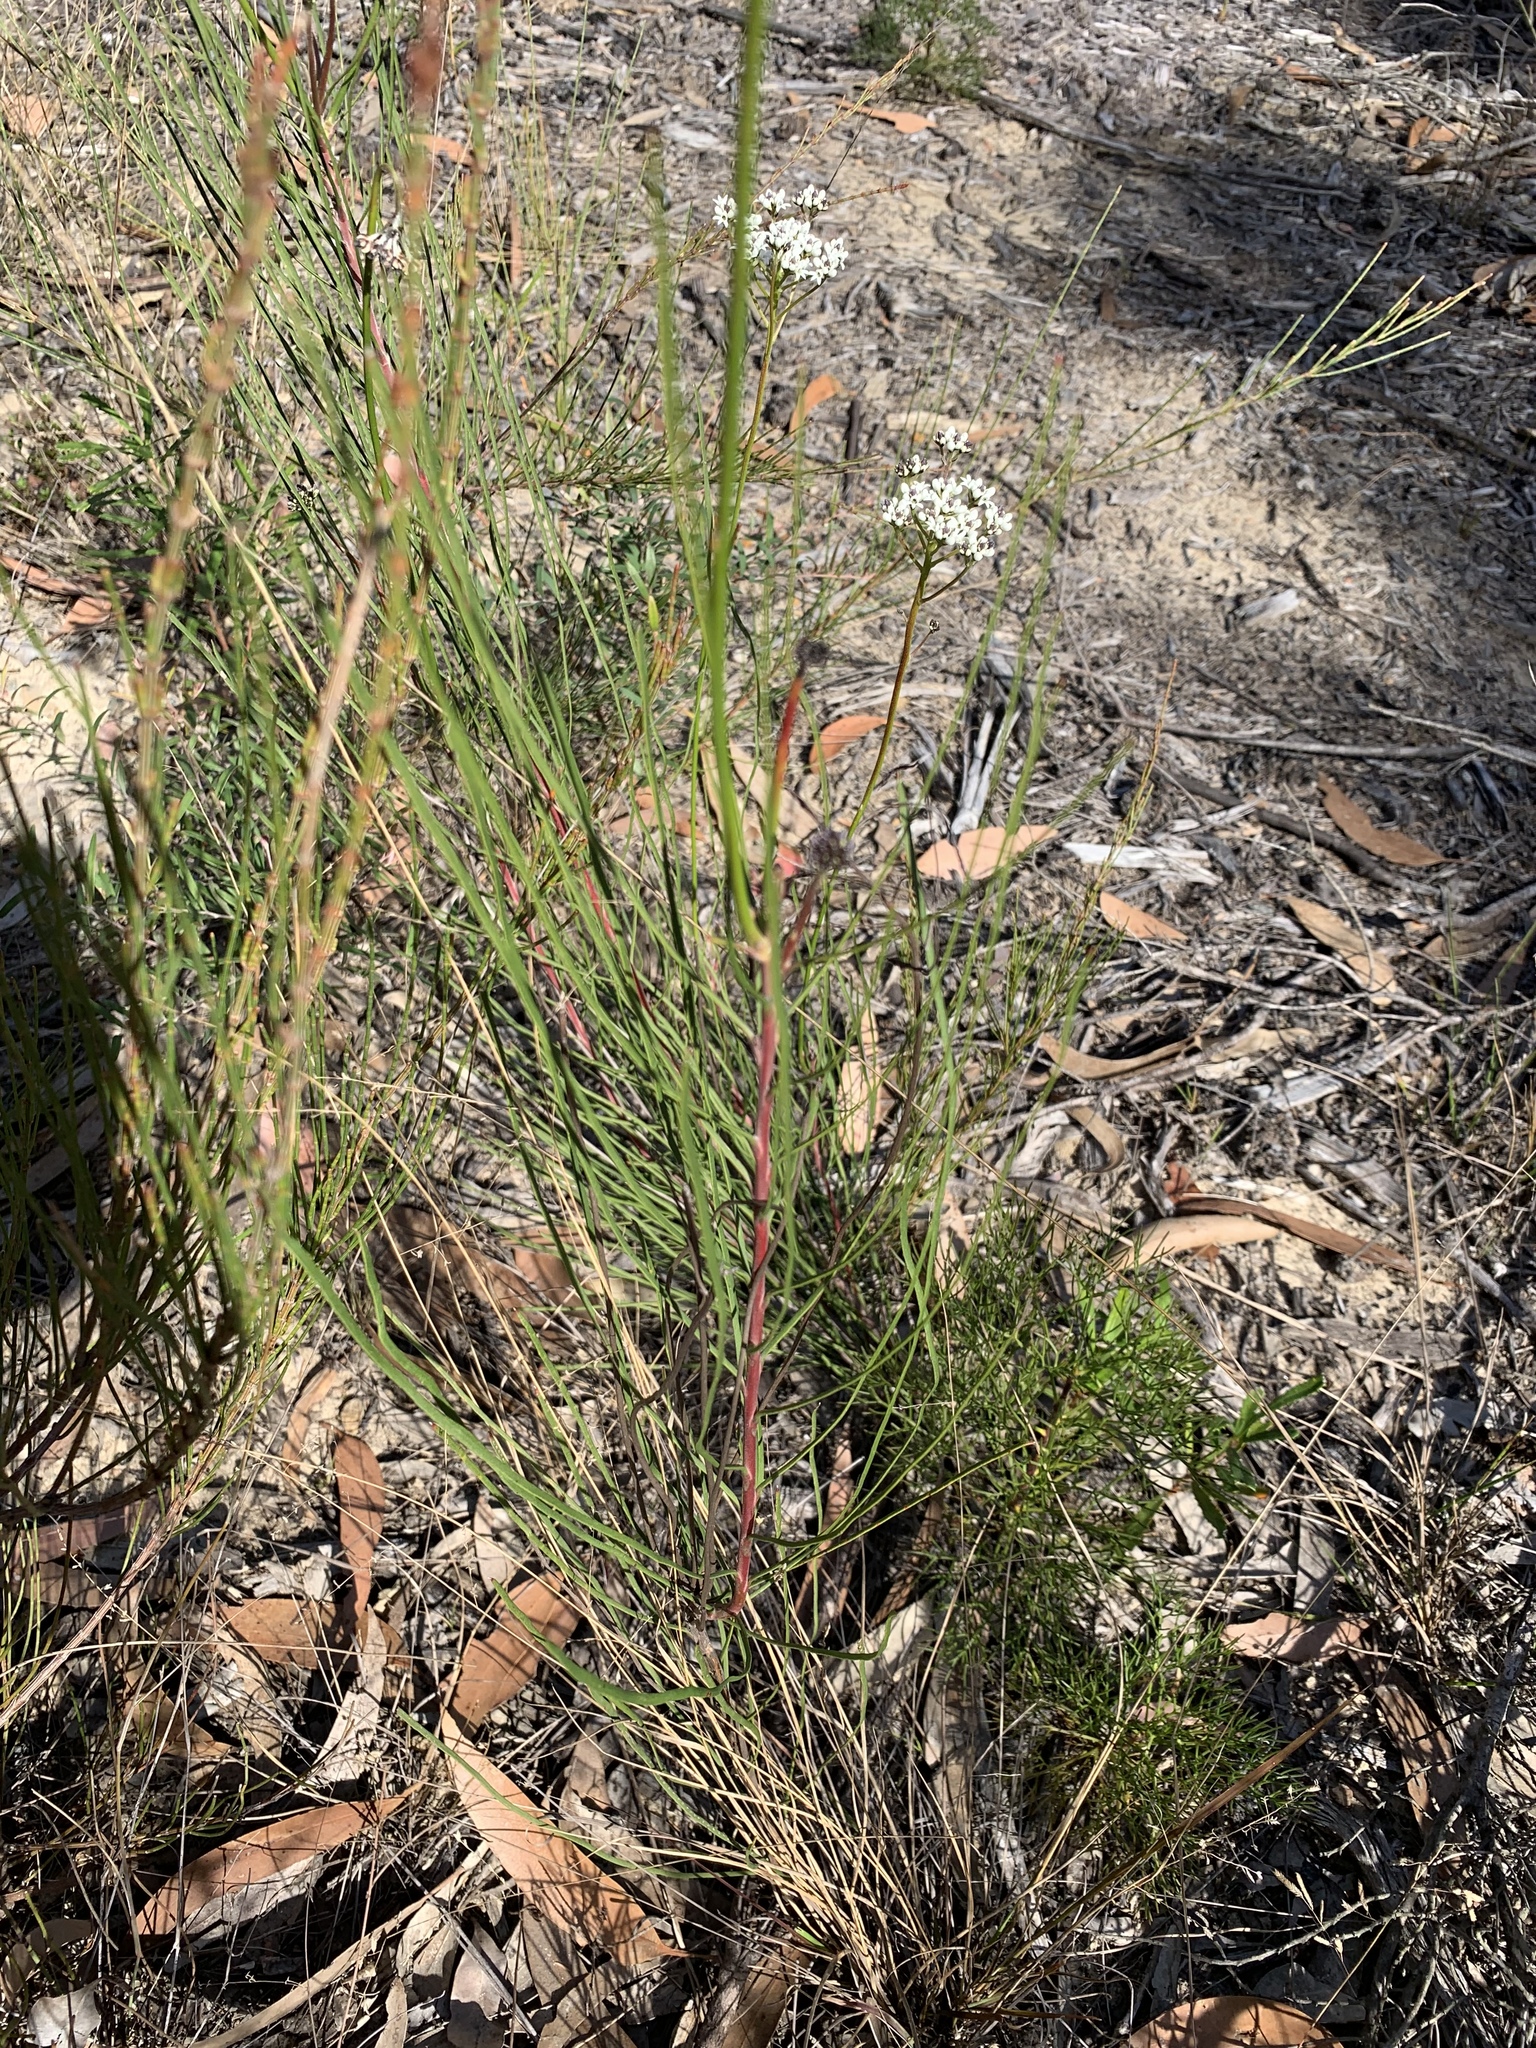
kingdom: Plantae
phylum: Tracheophyta
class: Magnoliopsida
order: Proteales
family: Proteaceae
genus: Conospermum
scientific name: Conospermum longifolium
